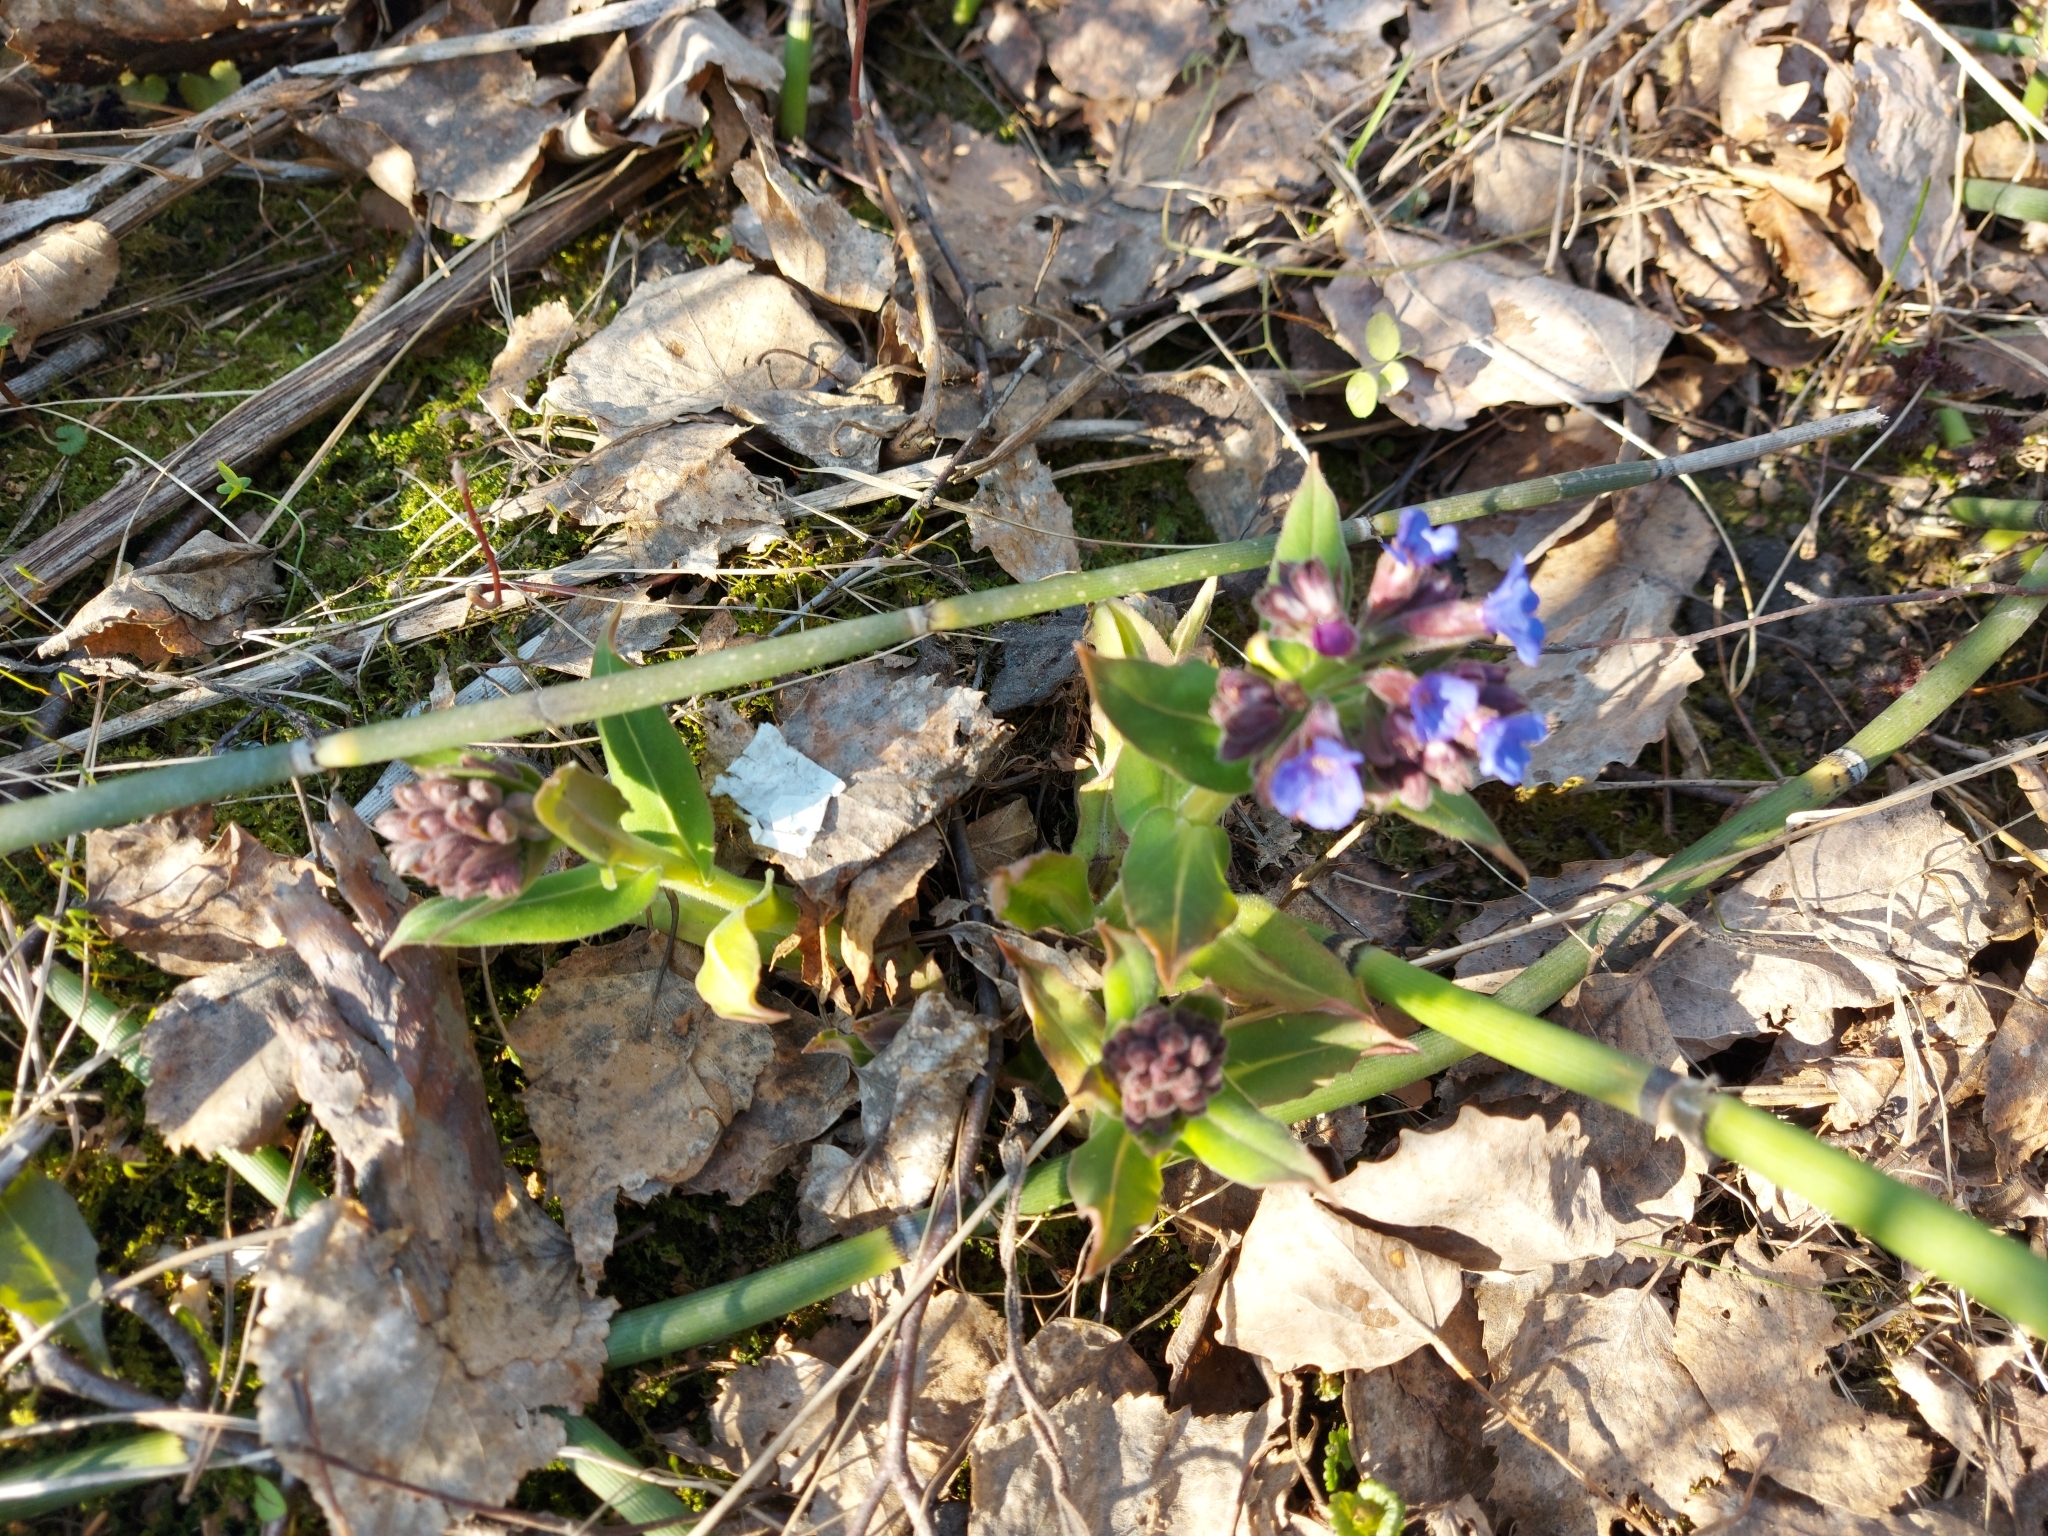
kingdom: Plantae
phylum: Tracheophyta
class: Magnoliopsida
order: Boraginales
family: Boraginaceae
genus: Pulmonaria
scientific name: Pulmonaria mollis
